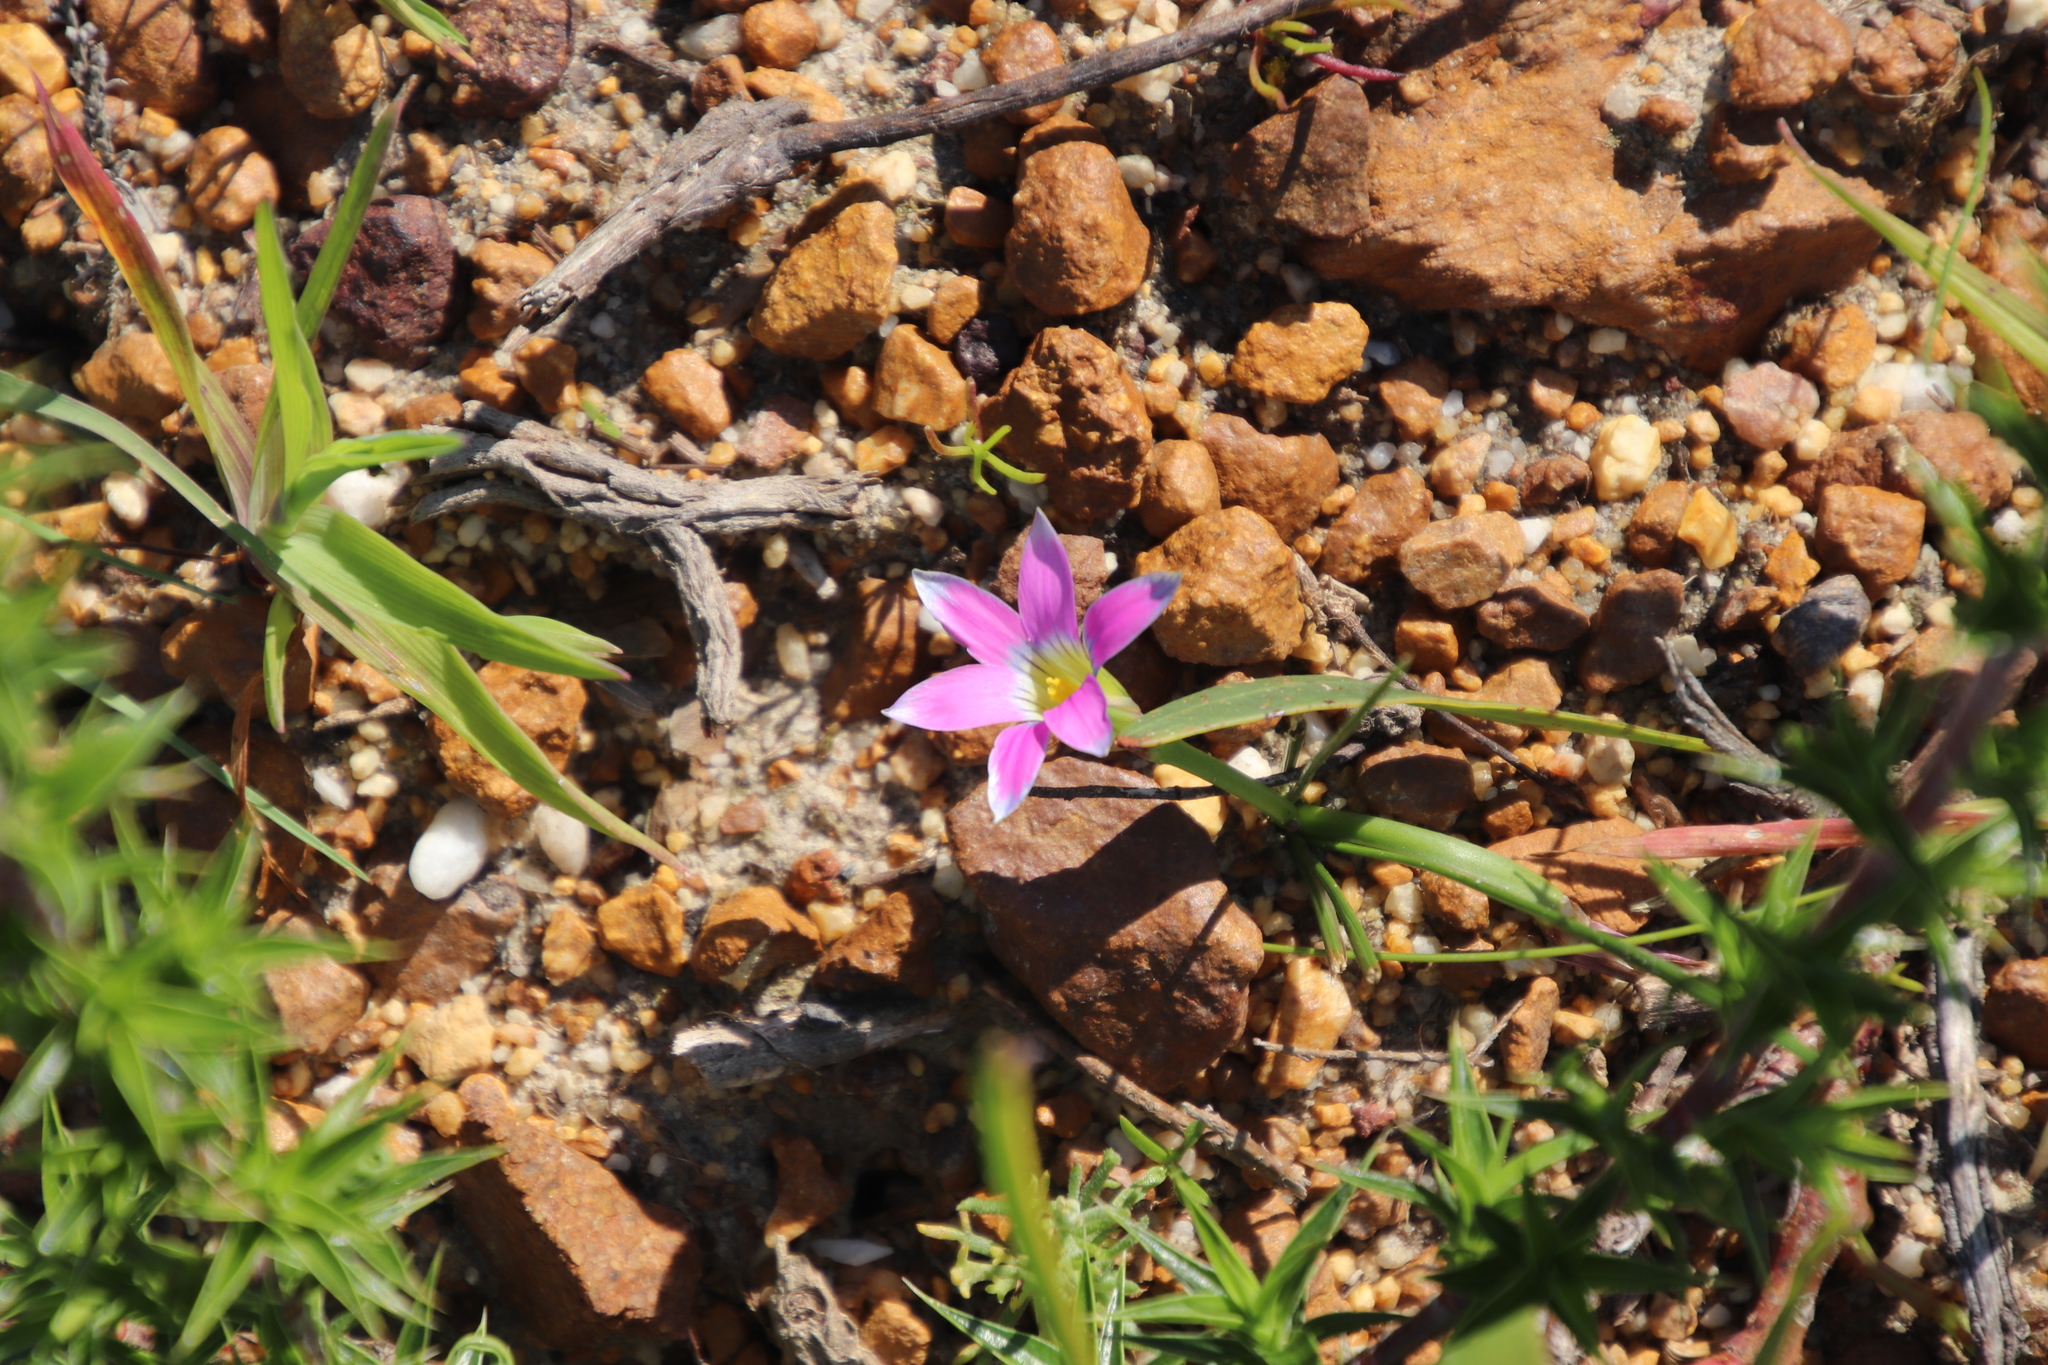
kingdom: Plantae
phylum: Tracheophyta
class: Liliopsida
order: Asparagales
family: Iridaceae
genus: Romulea
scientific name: Romulea rosea
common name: Oniongrass
